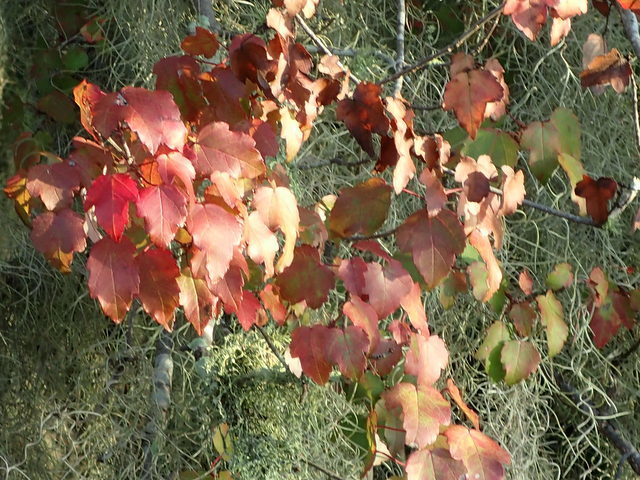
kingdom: Plantae
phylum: Tracheophyta
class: Magnoliopsida
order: Sapindales
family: Sapindaceae
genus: Acer
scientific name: Acer rubrum
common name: Red maple
